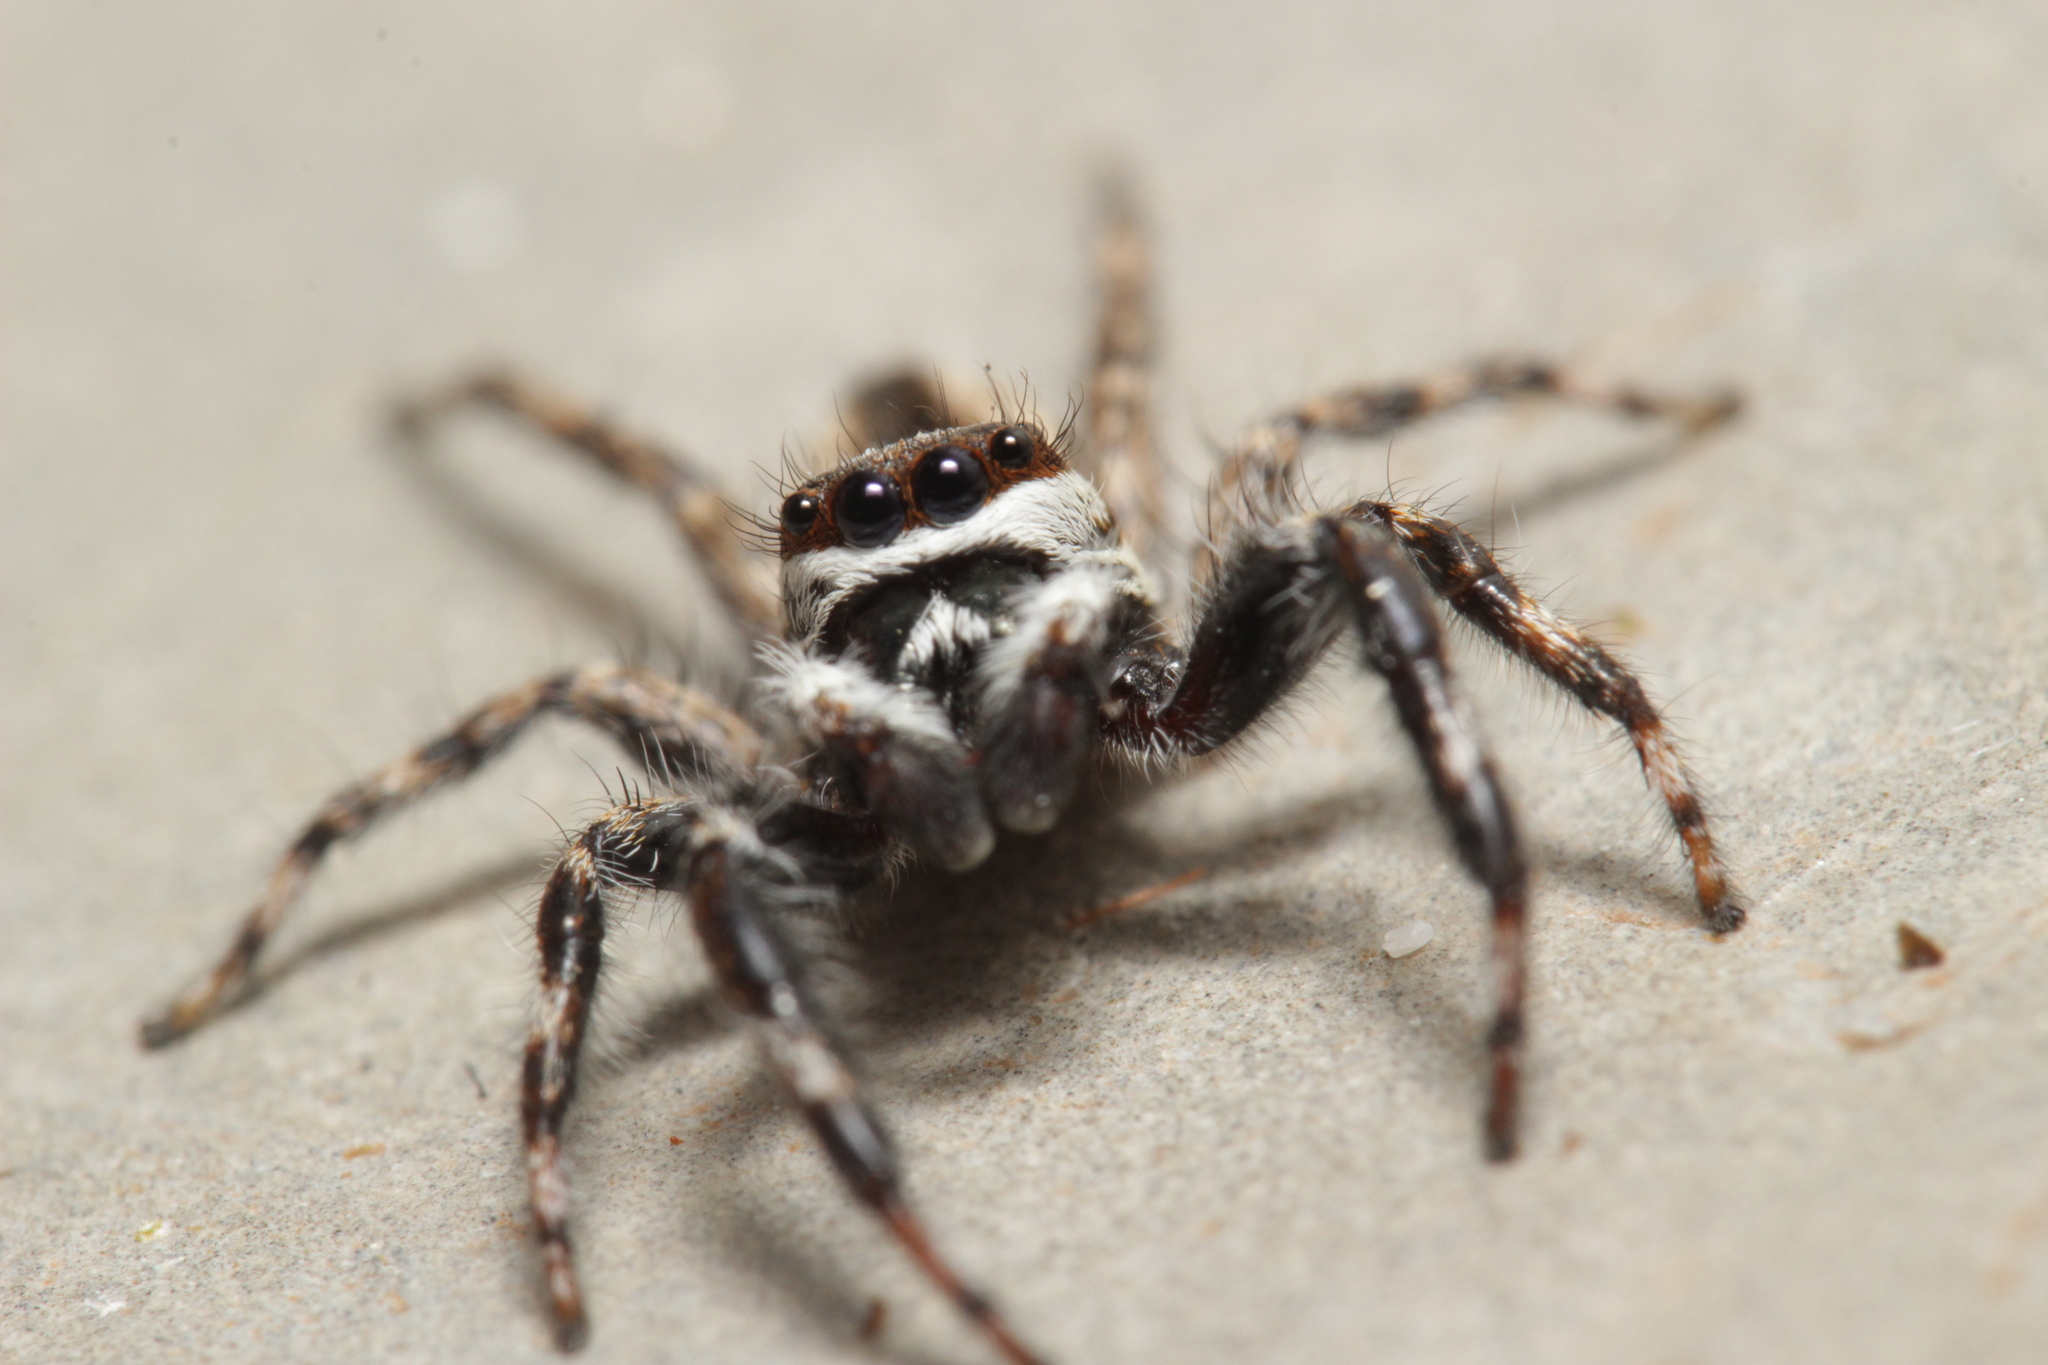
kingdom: Animalia
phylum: Arthropoda
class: Arachnida
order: Araneae
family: Salticidae
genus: Menemerus
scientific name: Menemerus bivittatus
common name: Gray wall jumper
